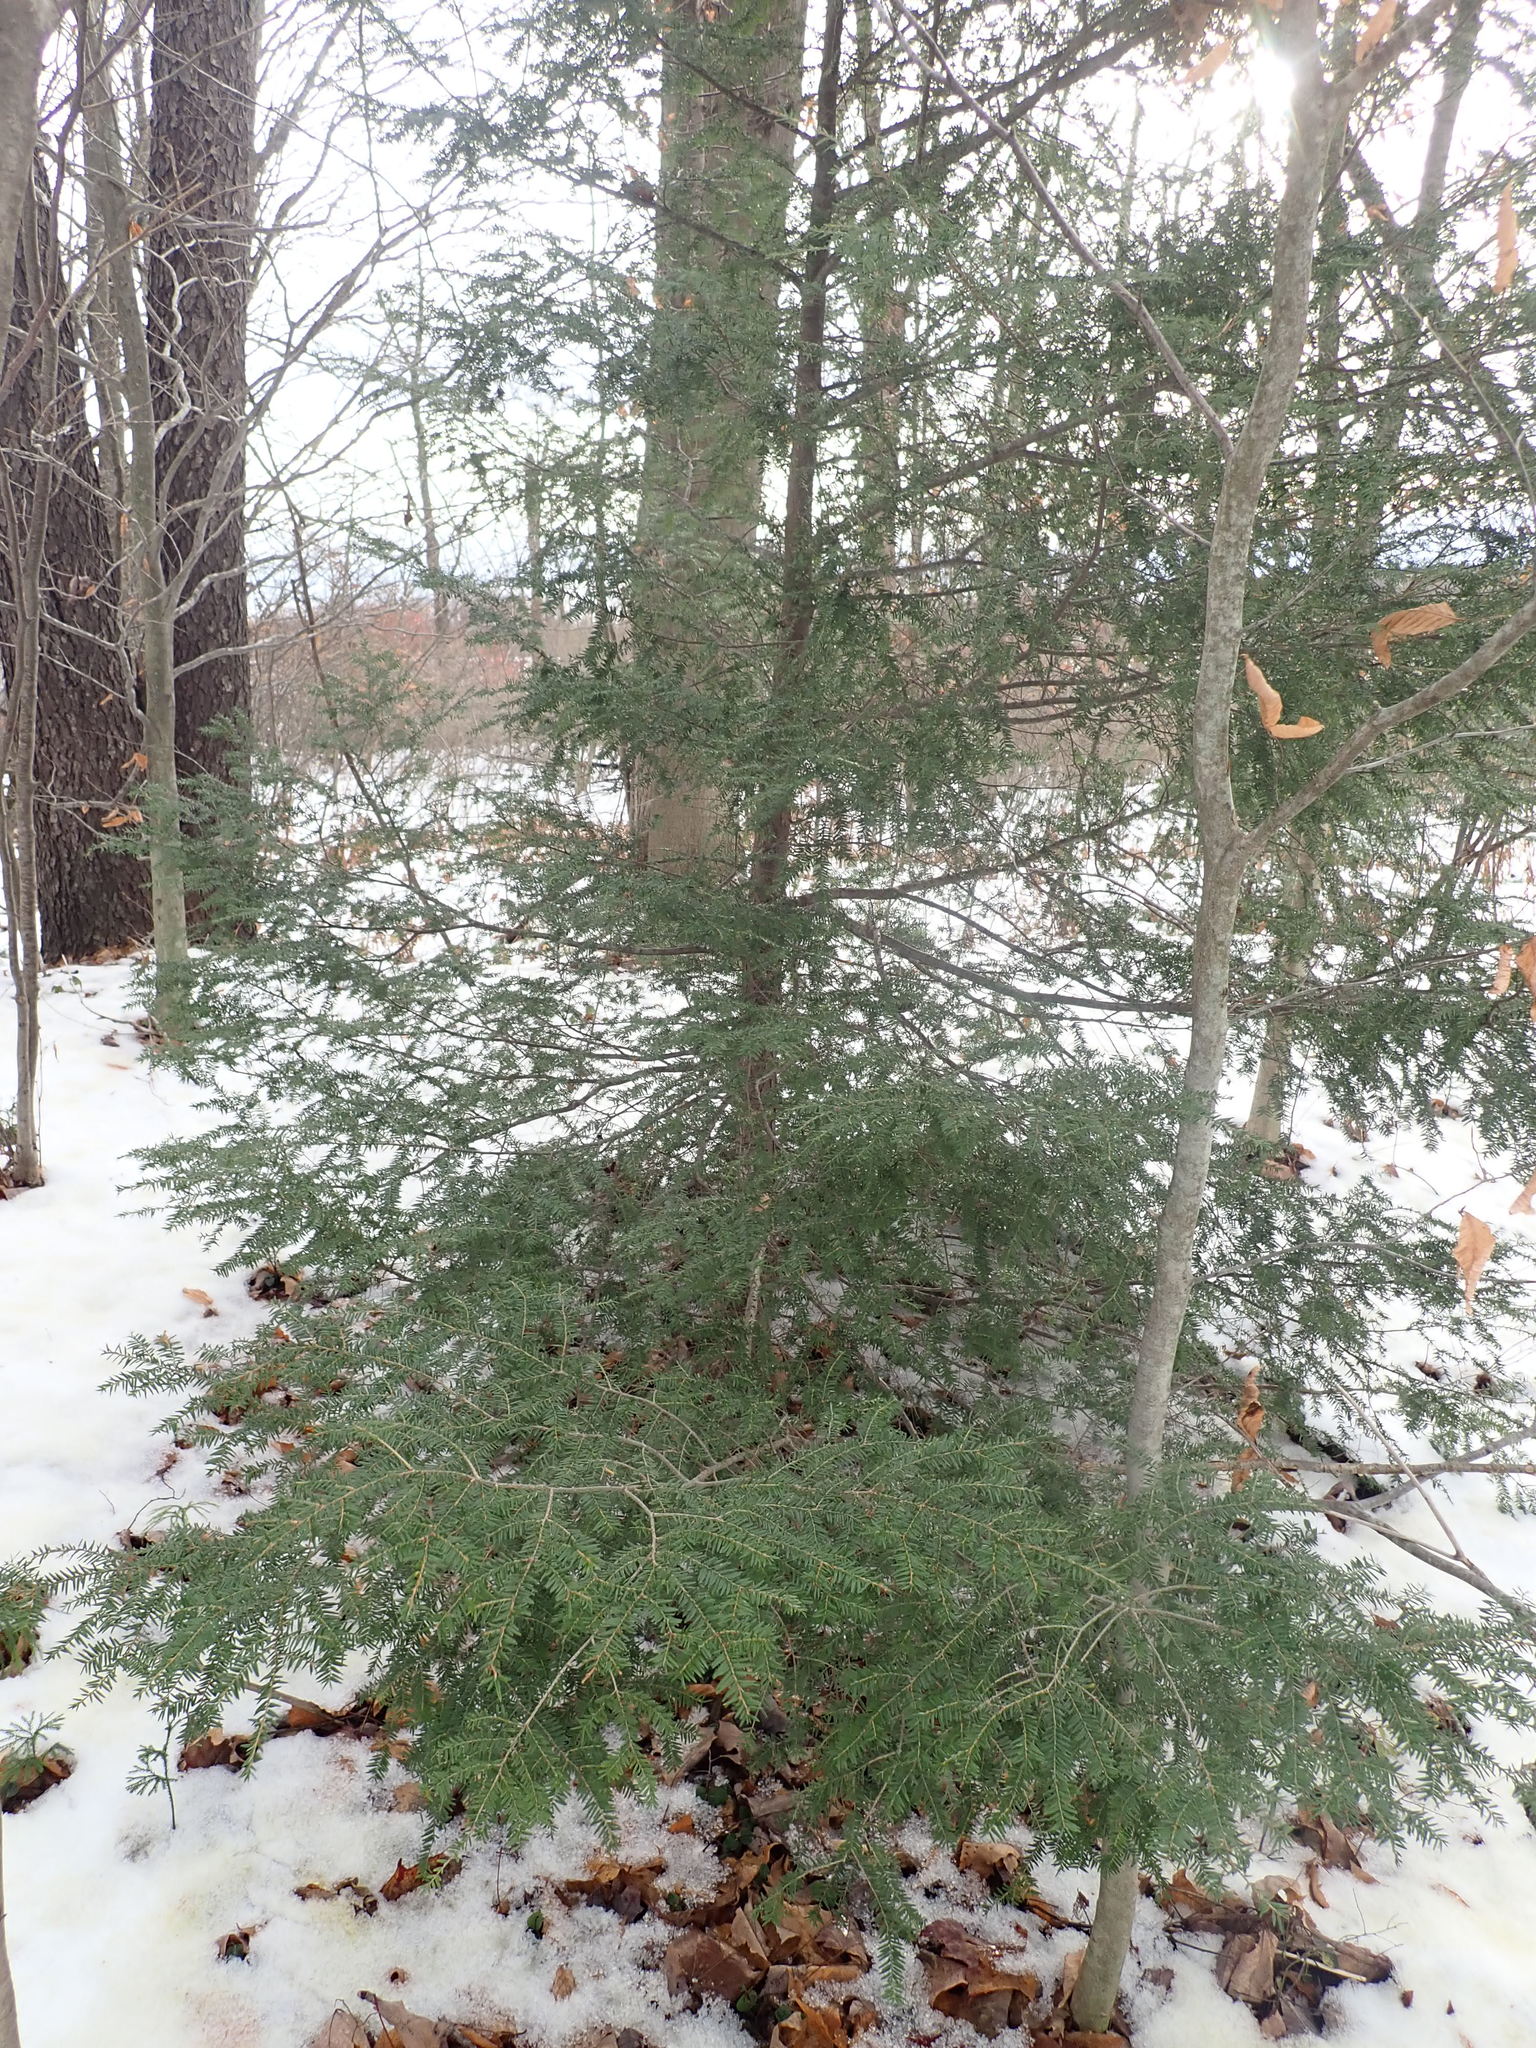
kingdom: Plantae
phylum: Tracheophyta
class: Pinopsida
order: Pinales
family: Pinaceae
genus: Tsuga
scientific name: Tsuga canadensis
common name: Eastern hemlock
